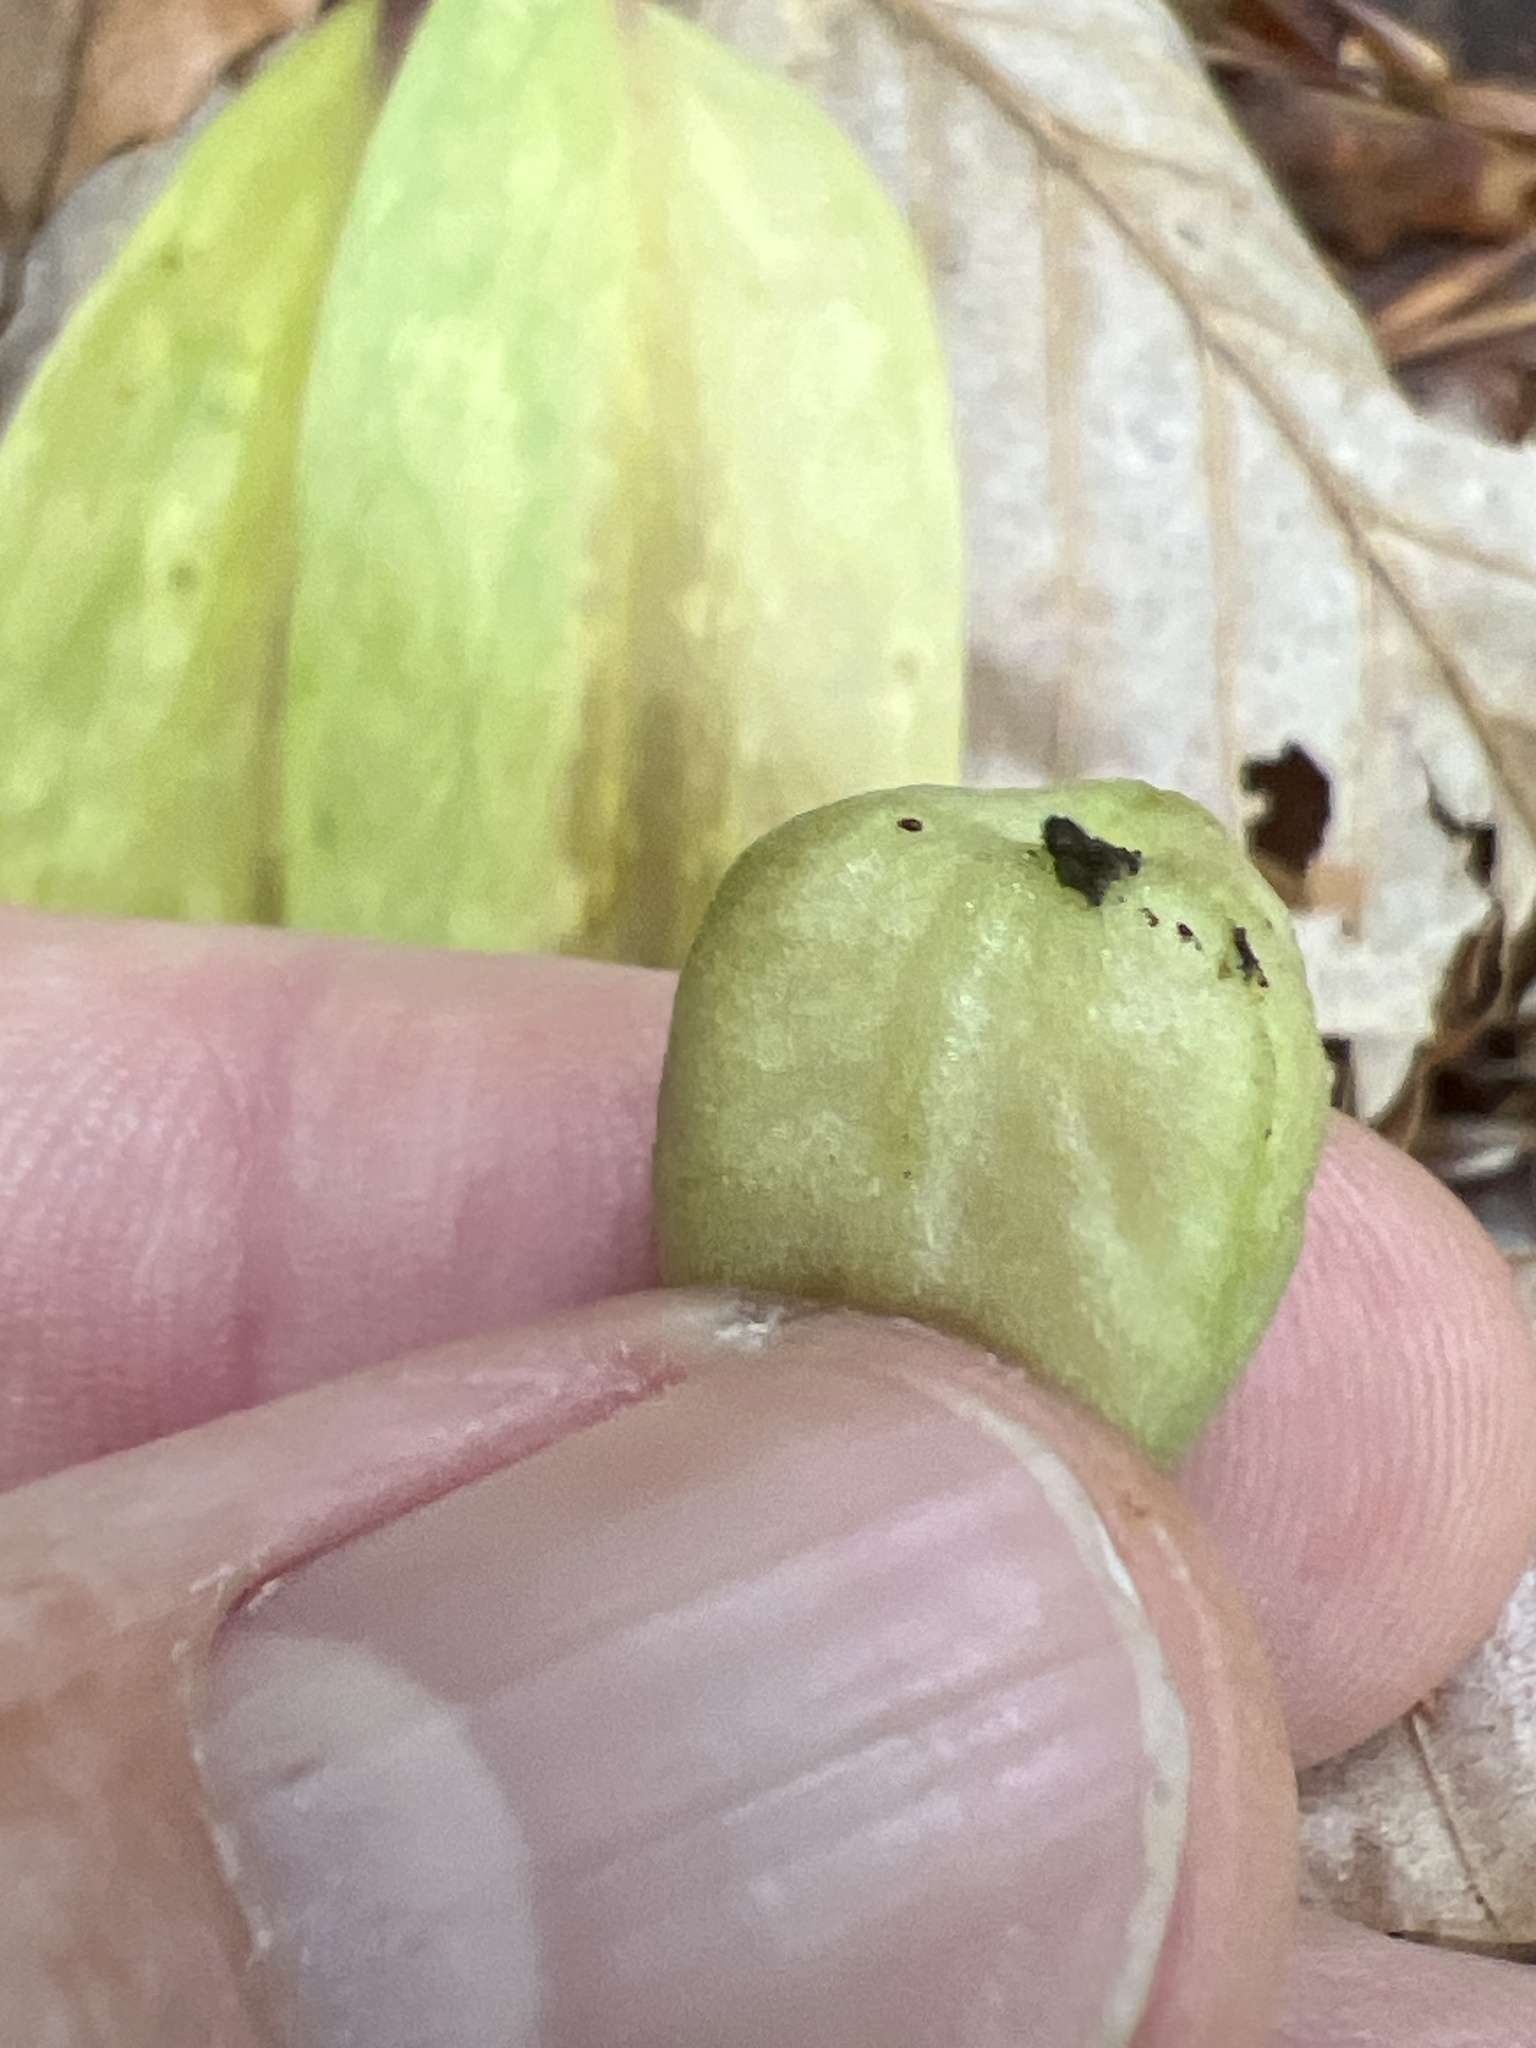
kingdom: Plantae
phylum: Tracheophyta
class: Liliopsida
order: Liliales
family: Liliaceae
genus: Erythronium
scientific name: Erythronium umbilicatum
